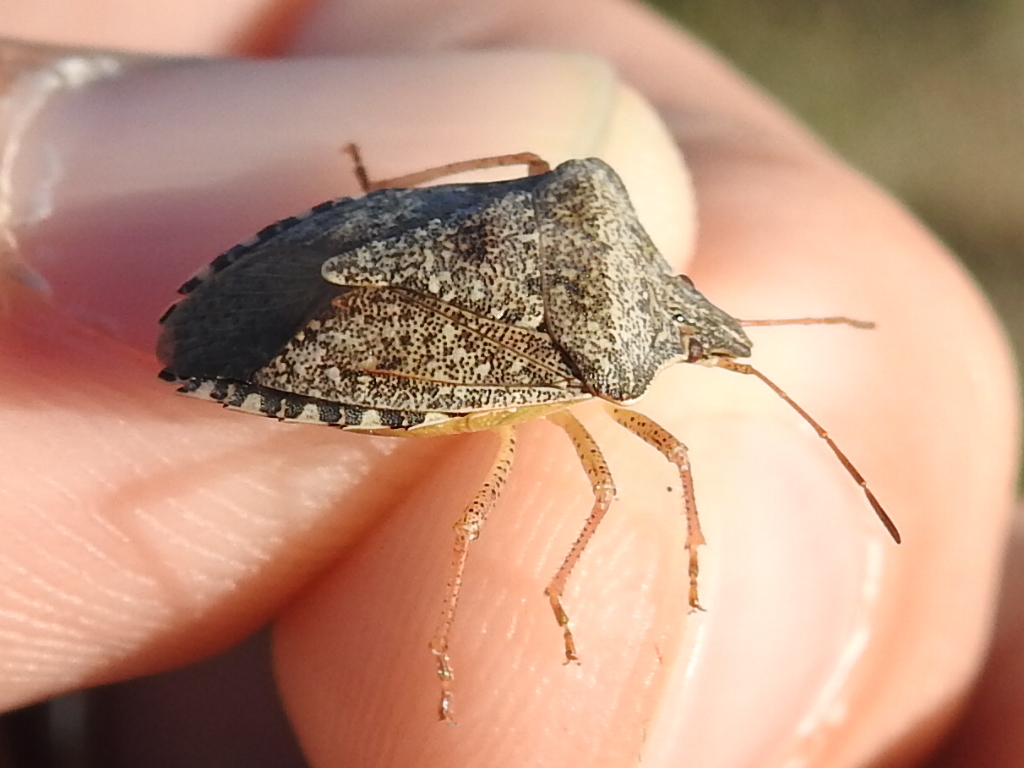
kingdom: Animalia
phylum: Arthropoda
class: Insecta
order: Hemiptera
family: Pentatomidae
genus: Euschistus
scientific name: Euschistus servus
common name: Brown stink bug
